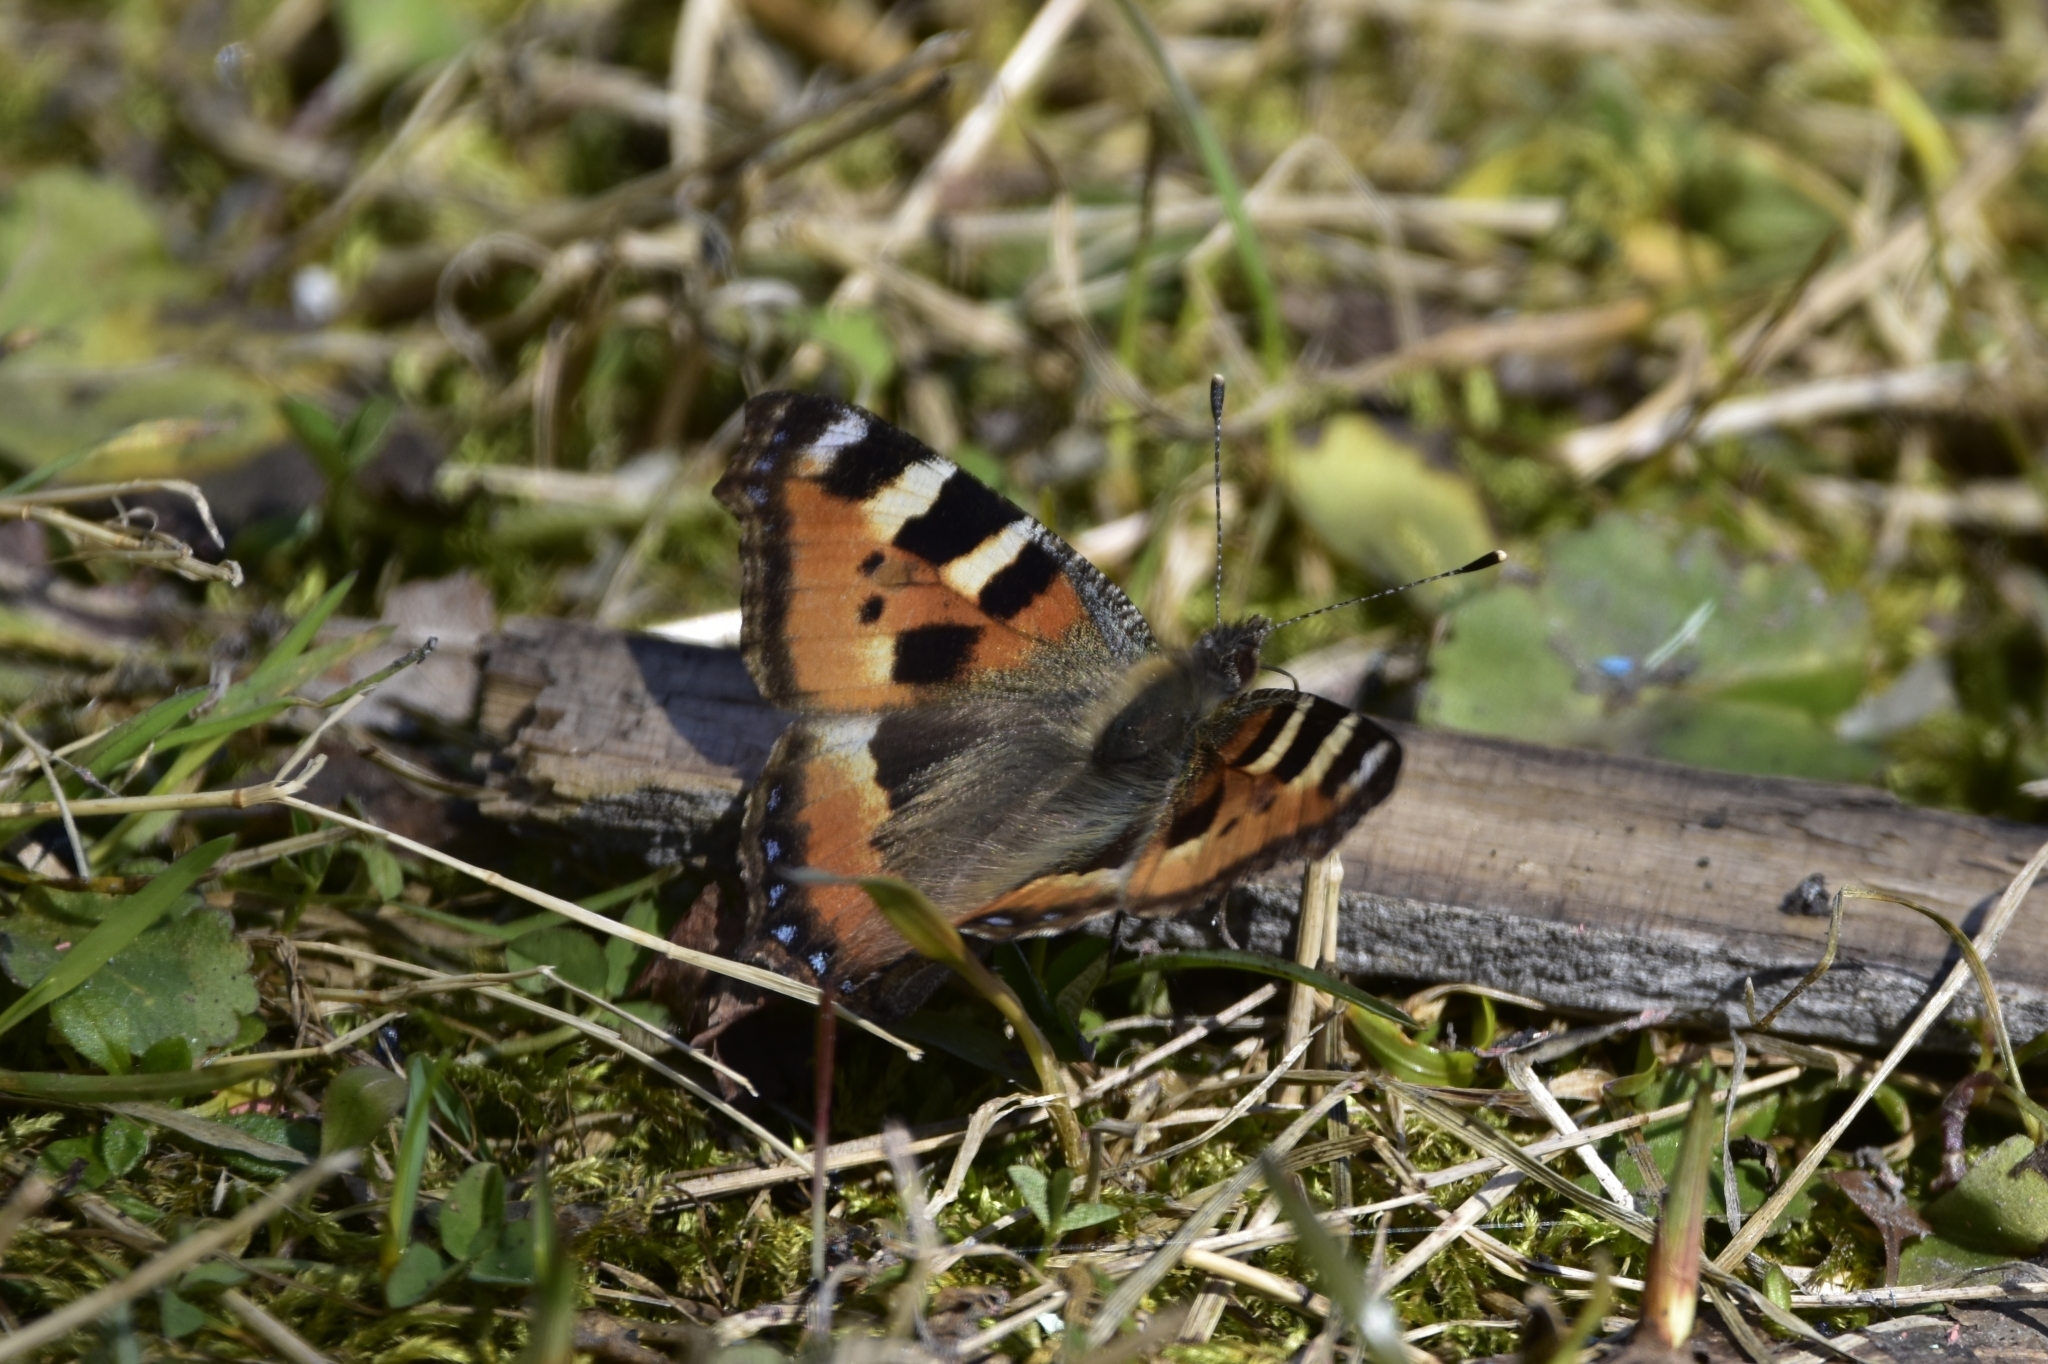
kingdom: Animalia
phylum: Arthropoda
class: Insecta
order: Lepidoptera
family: Nymphalidae
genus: Aglais
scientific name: Aglais urticae
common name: Small tortoiseshell
